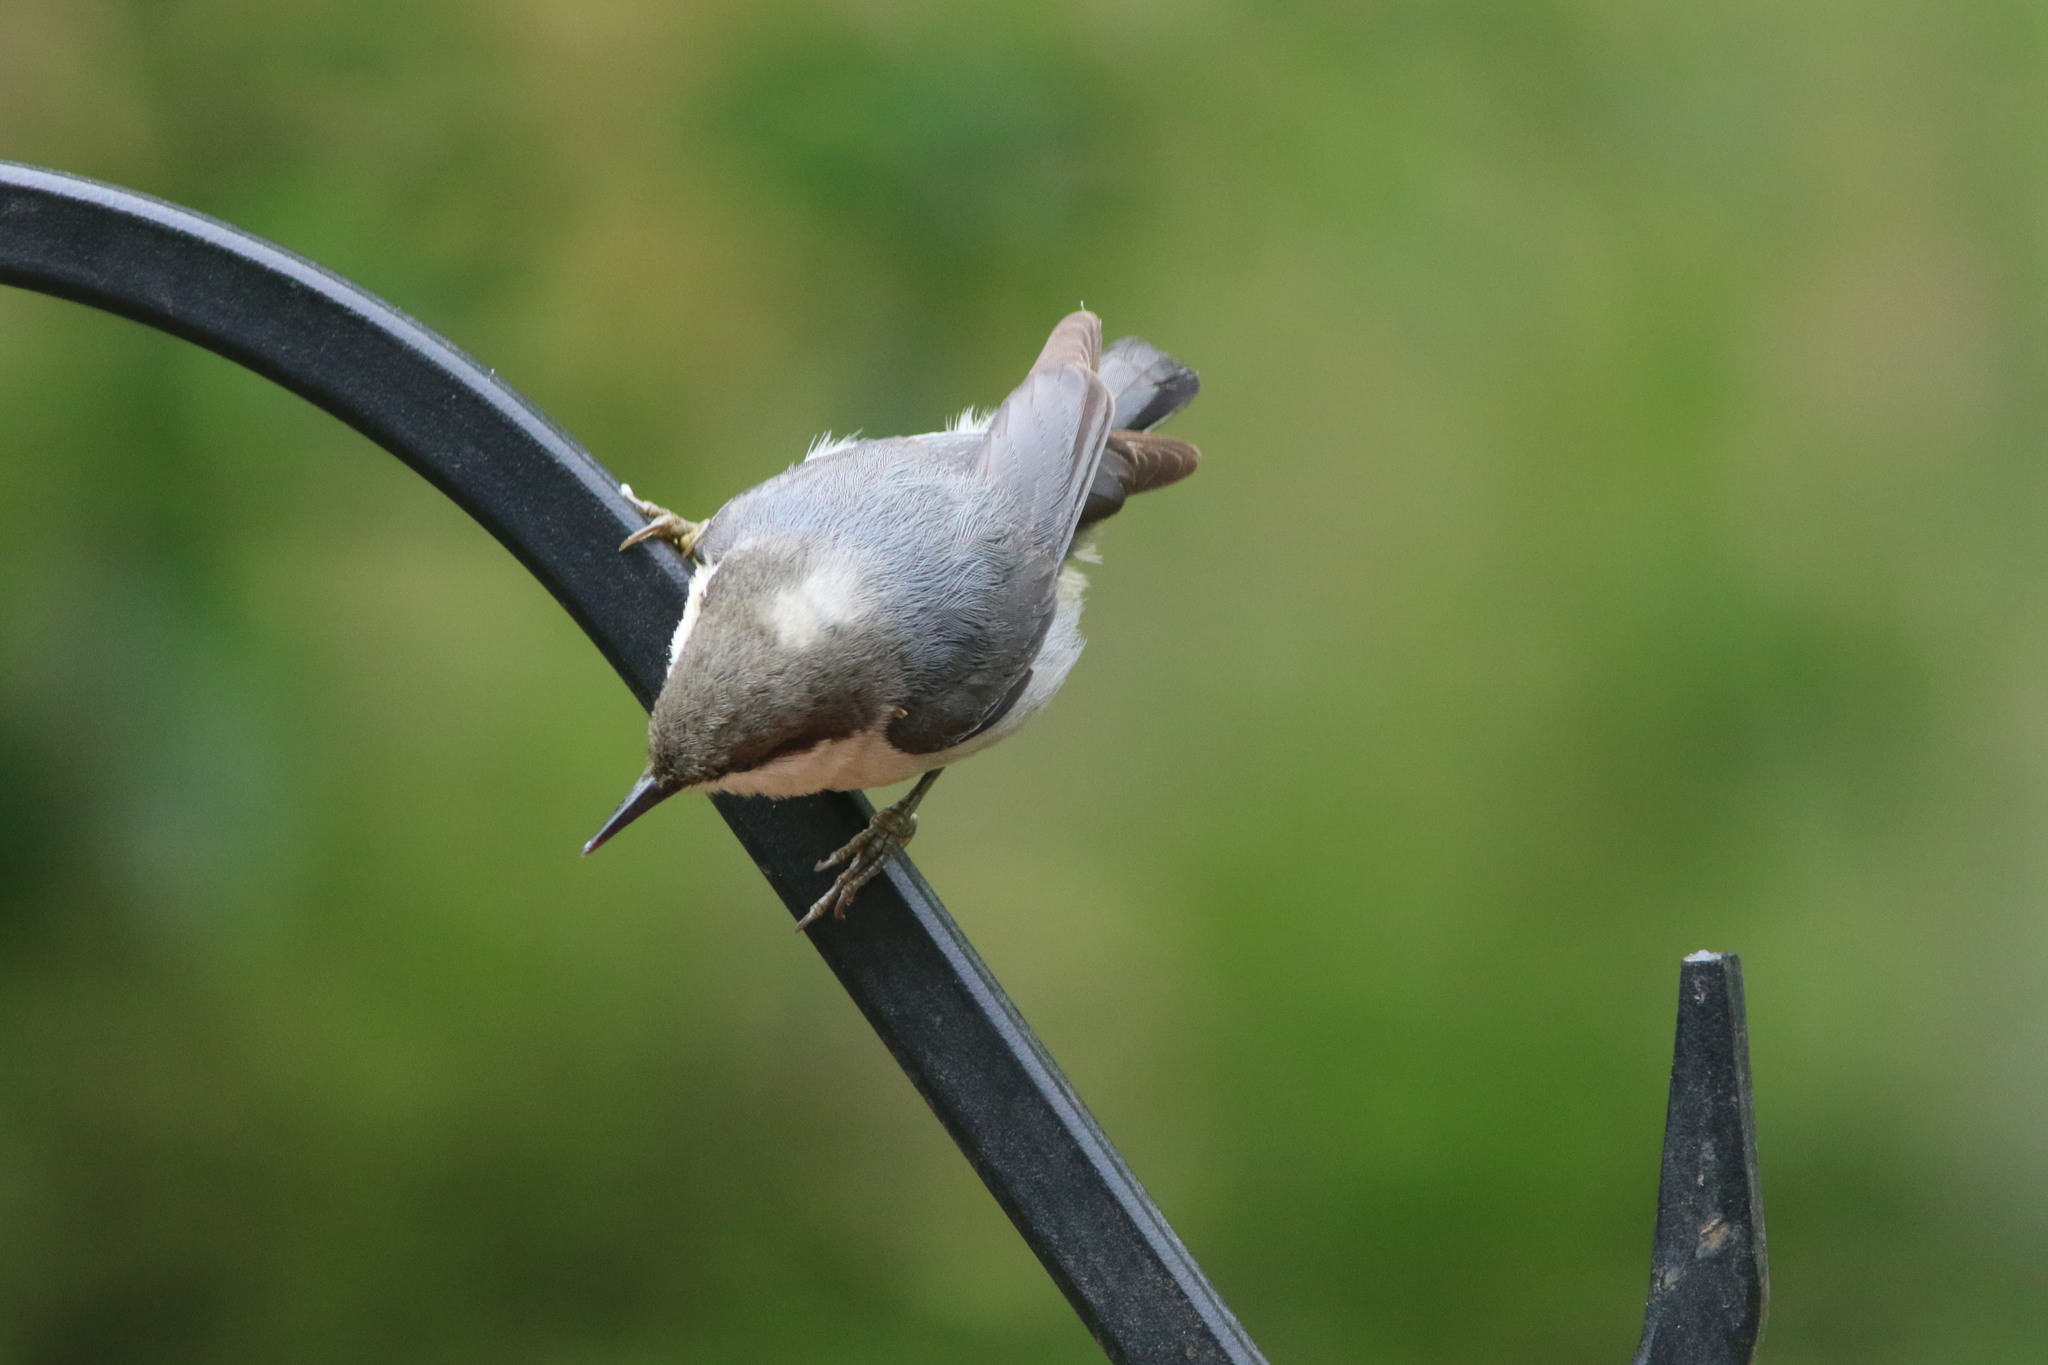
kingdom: Animalia
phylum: Chordata
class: Aves
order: Passeriformes
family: Sittidae
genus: Sitta
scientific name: Sitta pygmaea
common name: Pygmy nuthatch
